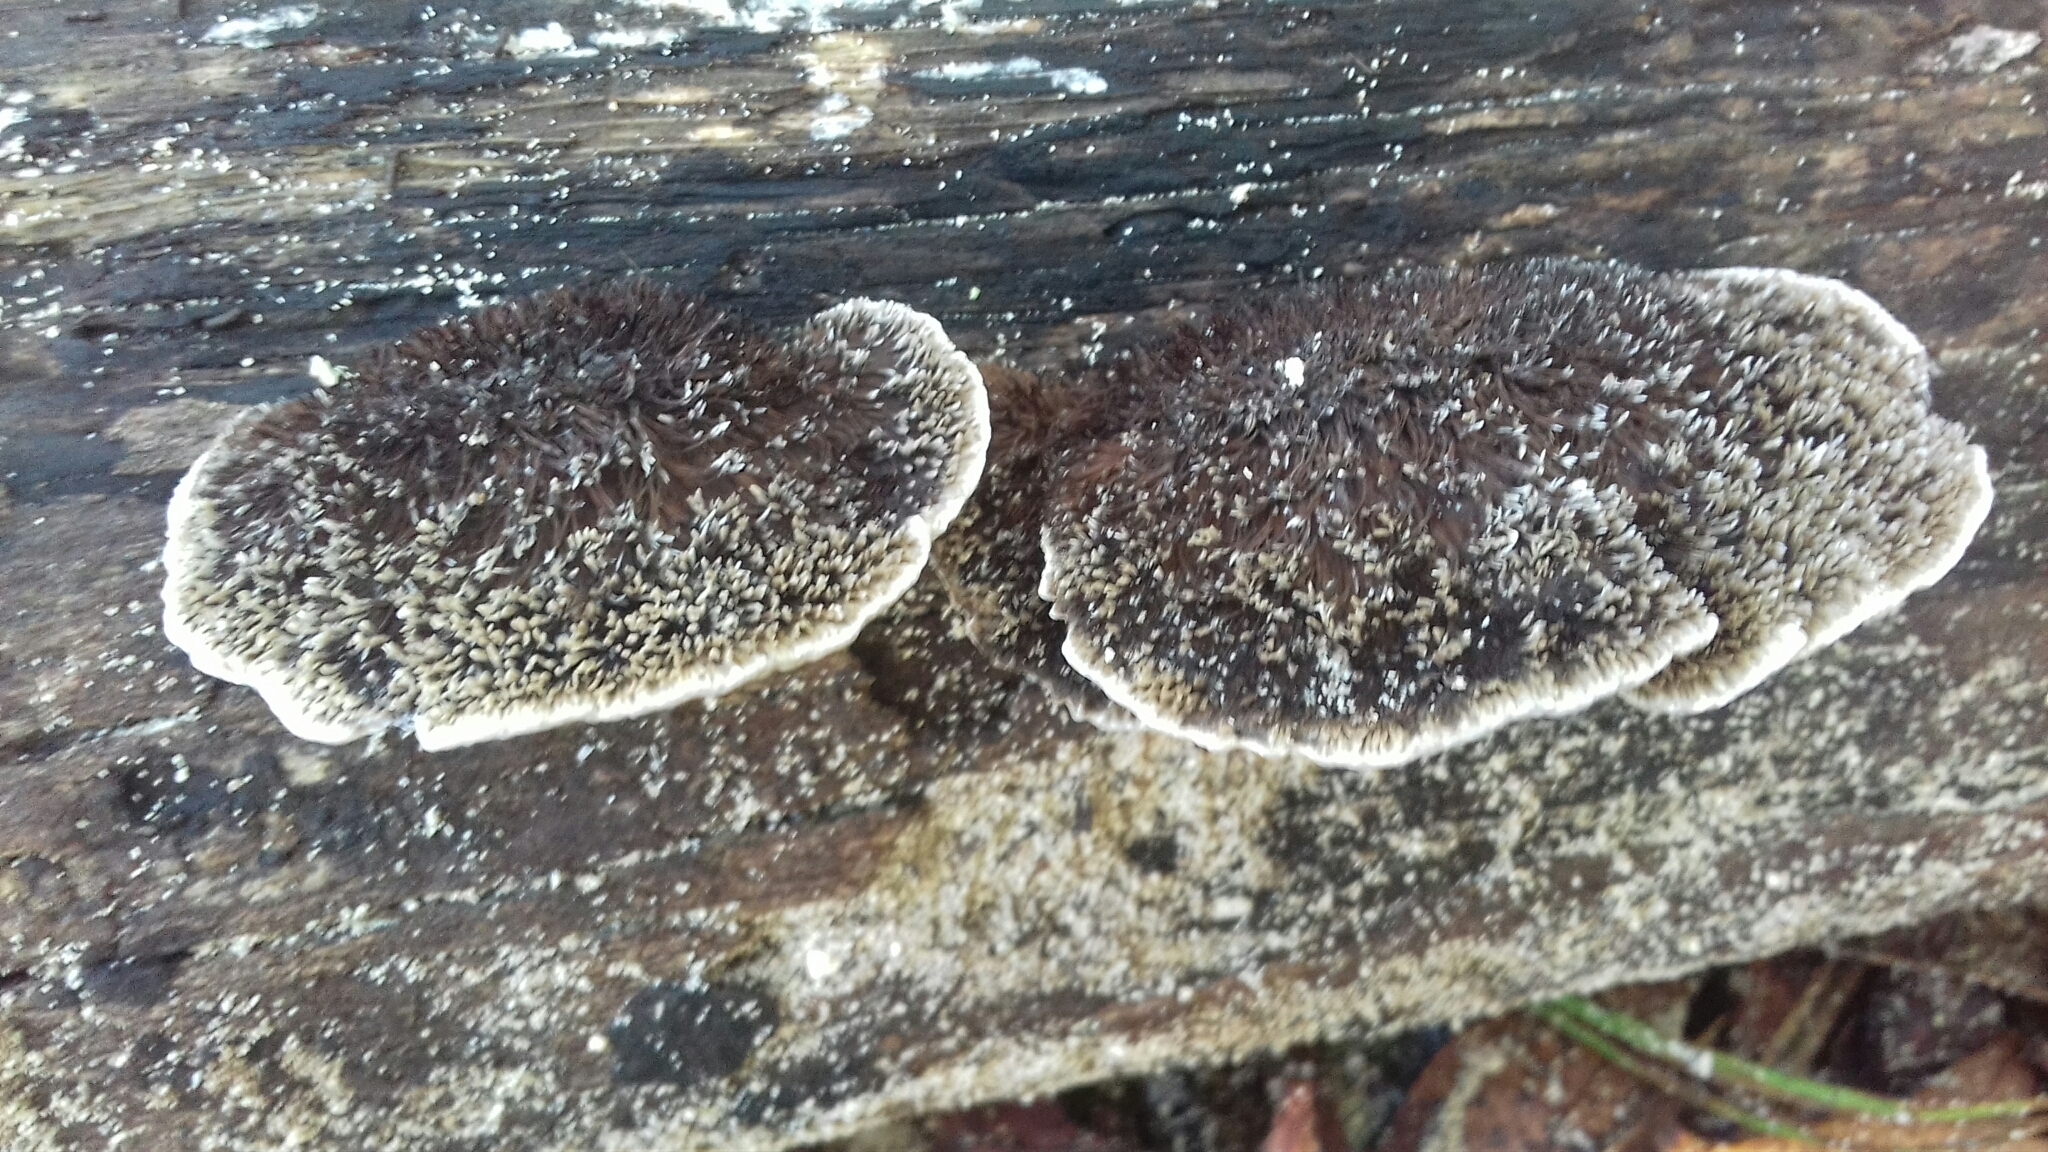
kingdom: Fungi
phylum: Basidiomycota
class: Agaricomycetes
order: Polyporales
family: Cerrenaceae
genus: Cerrena
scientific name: Cerrena hydnoides
